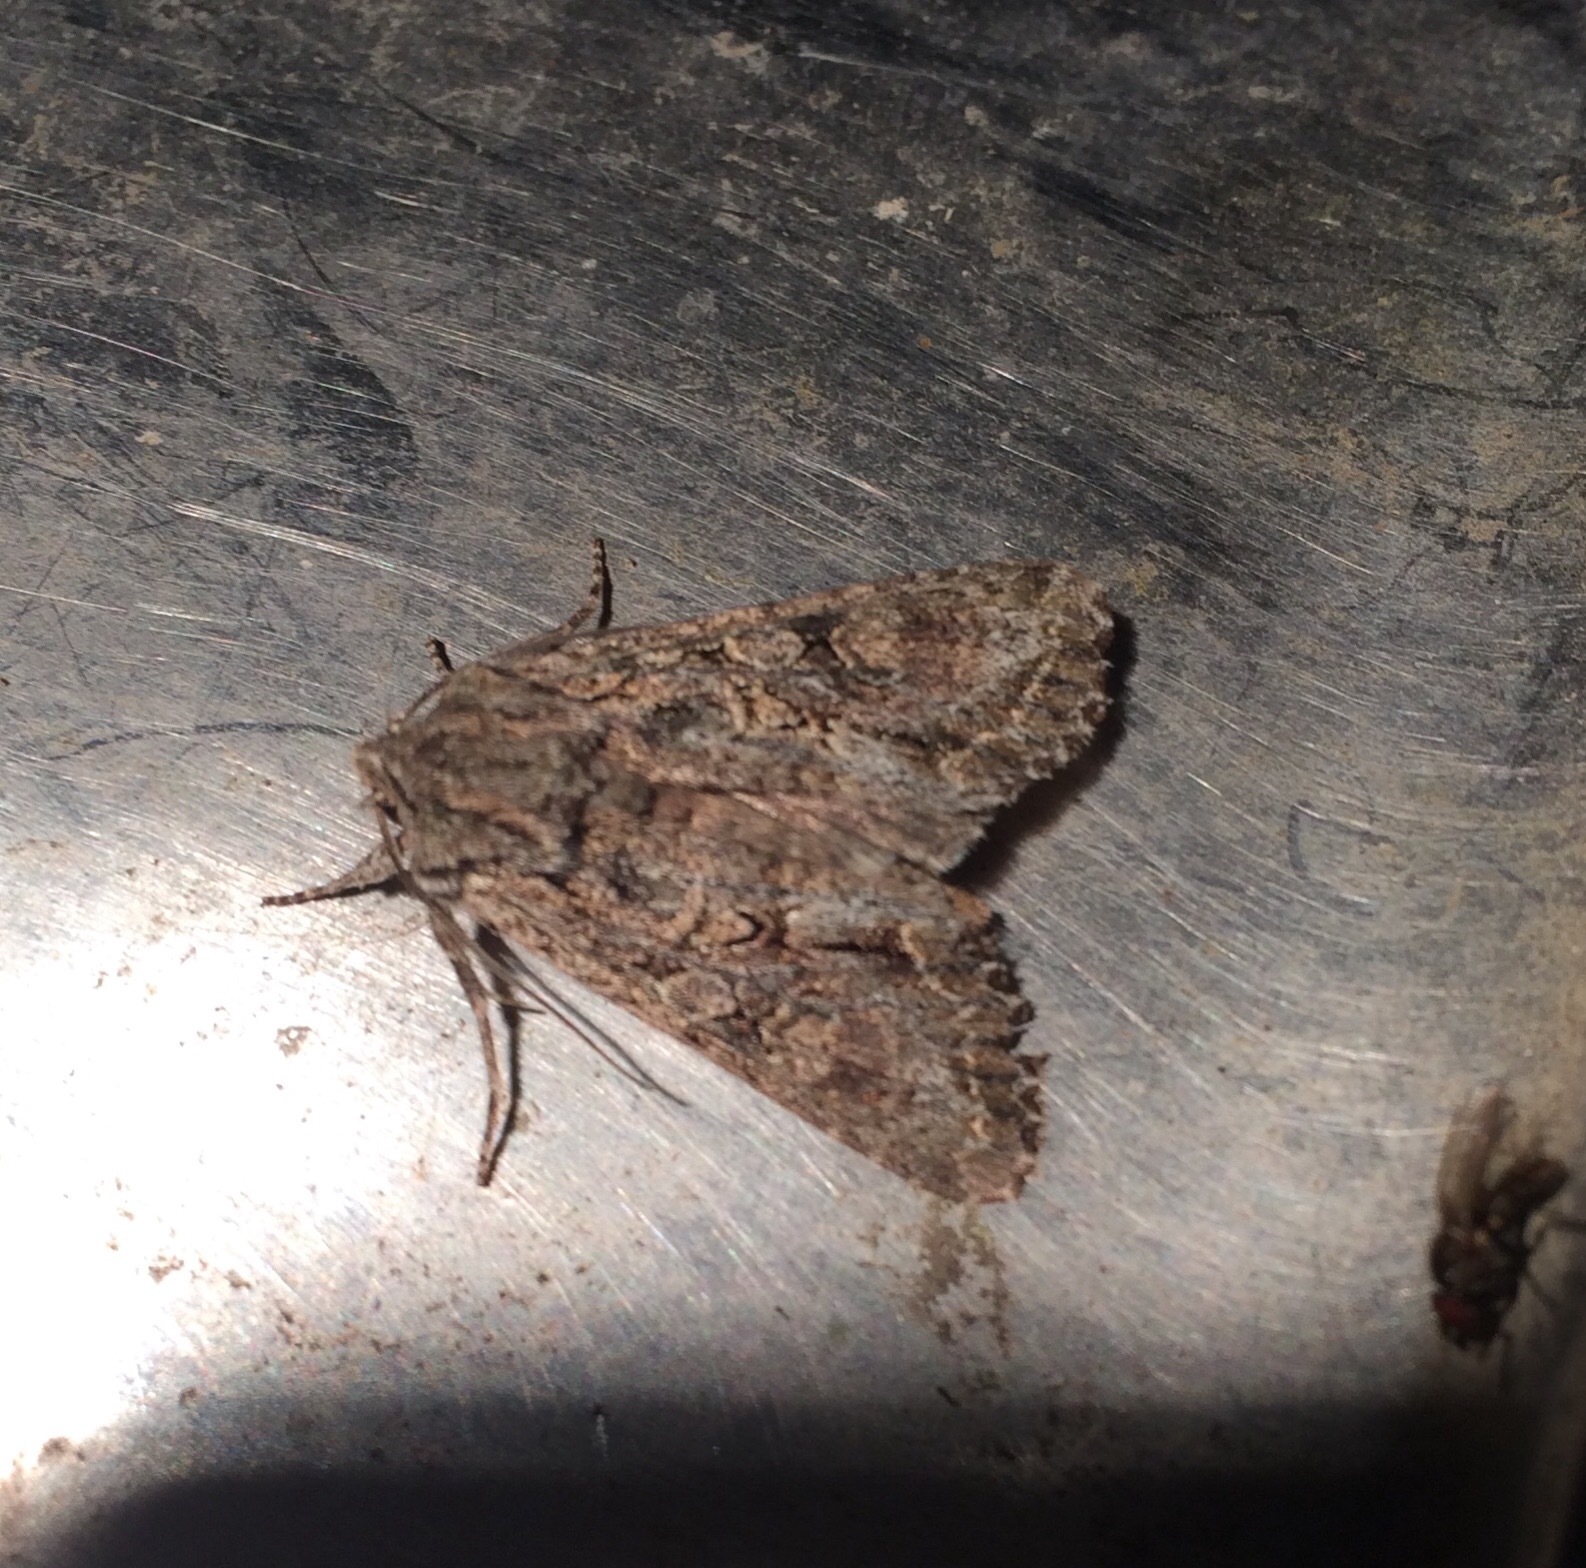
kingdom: Animalia
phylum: Arthropoda
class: Insecta
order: Lepidoptera
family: Noctuidae
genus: Ichneutica
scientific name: Ichneutica mutans
